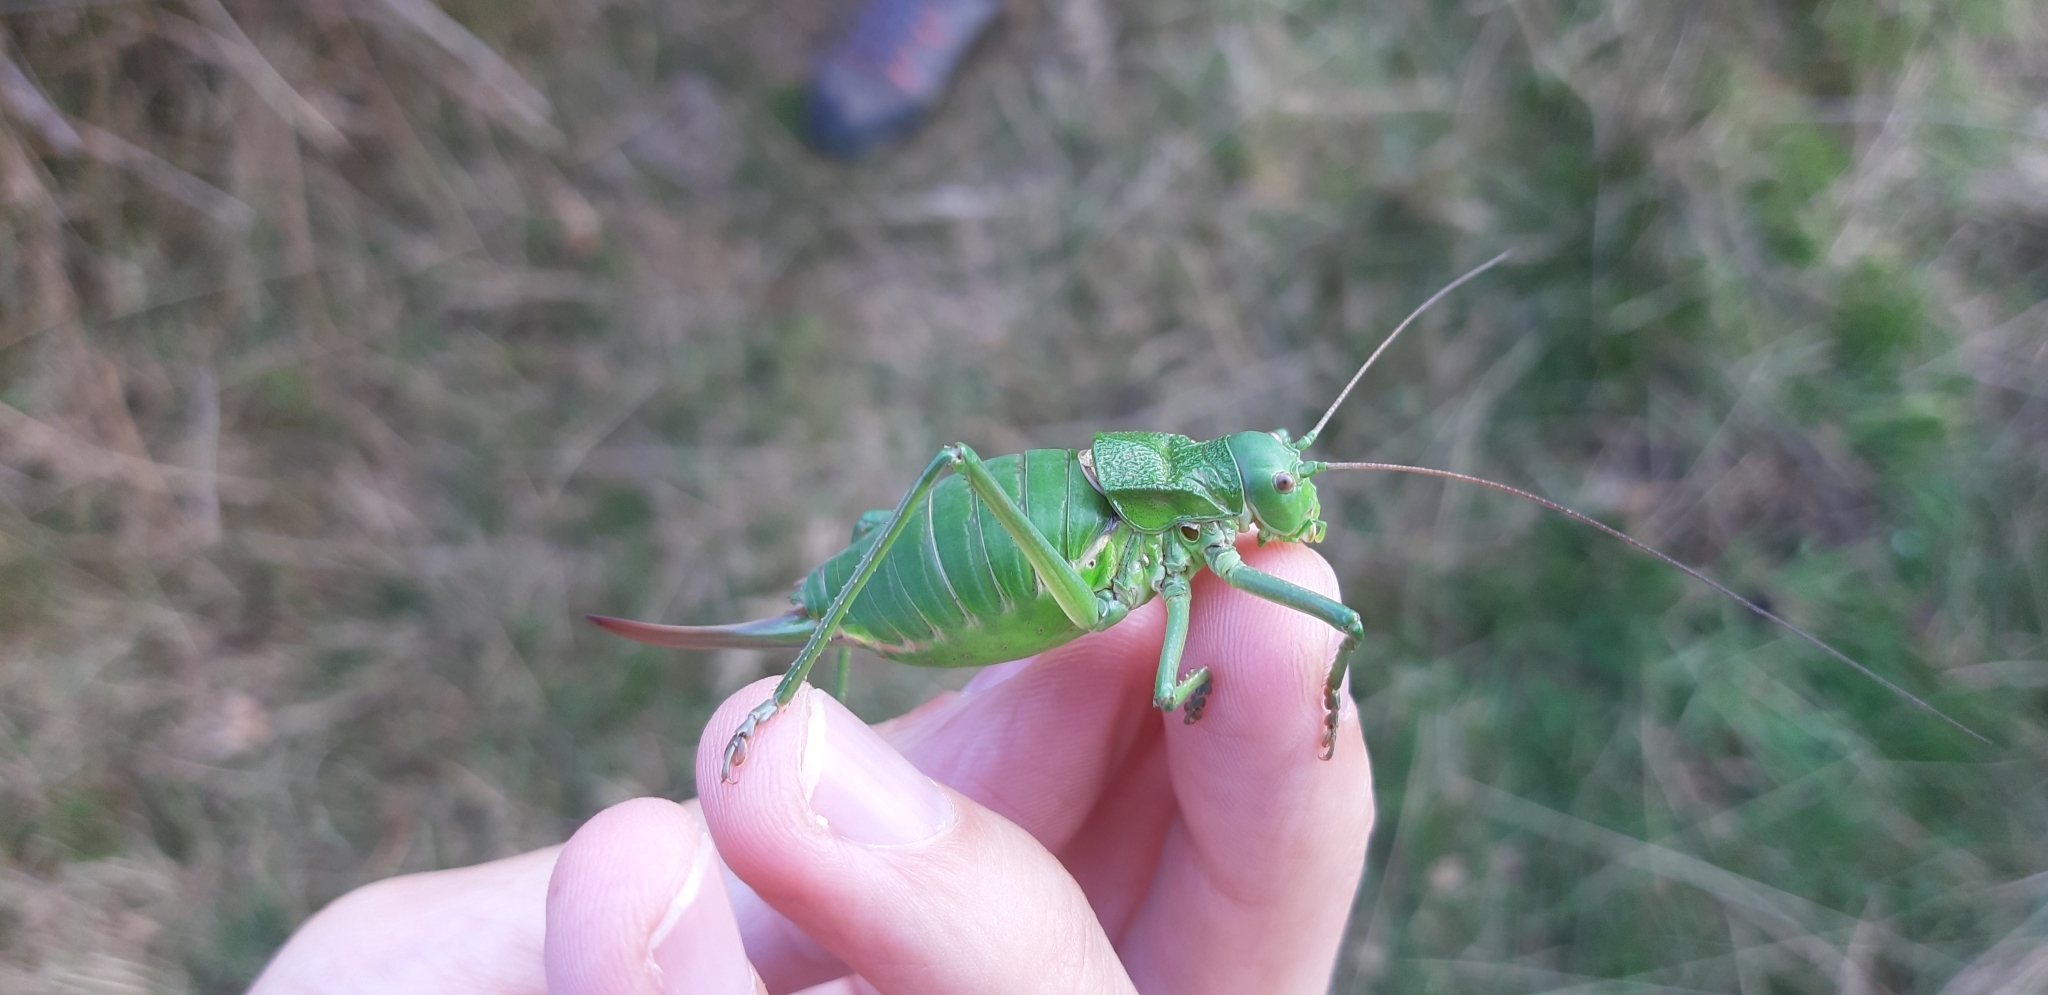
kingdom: Animalia
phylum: Arthropoda
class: Insecta
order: Orthoptera
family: Tettigoniidae
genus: Callicrania
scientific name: Callicrania ramburii
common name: Rambur's saddle bush-cricket
